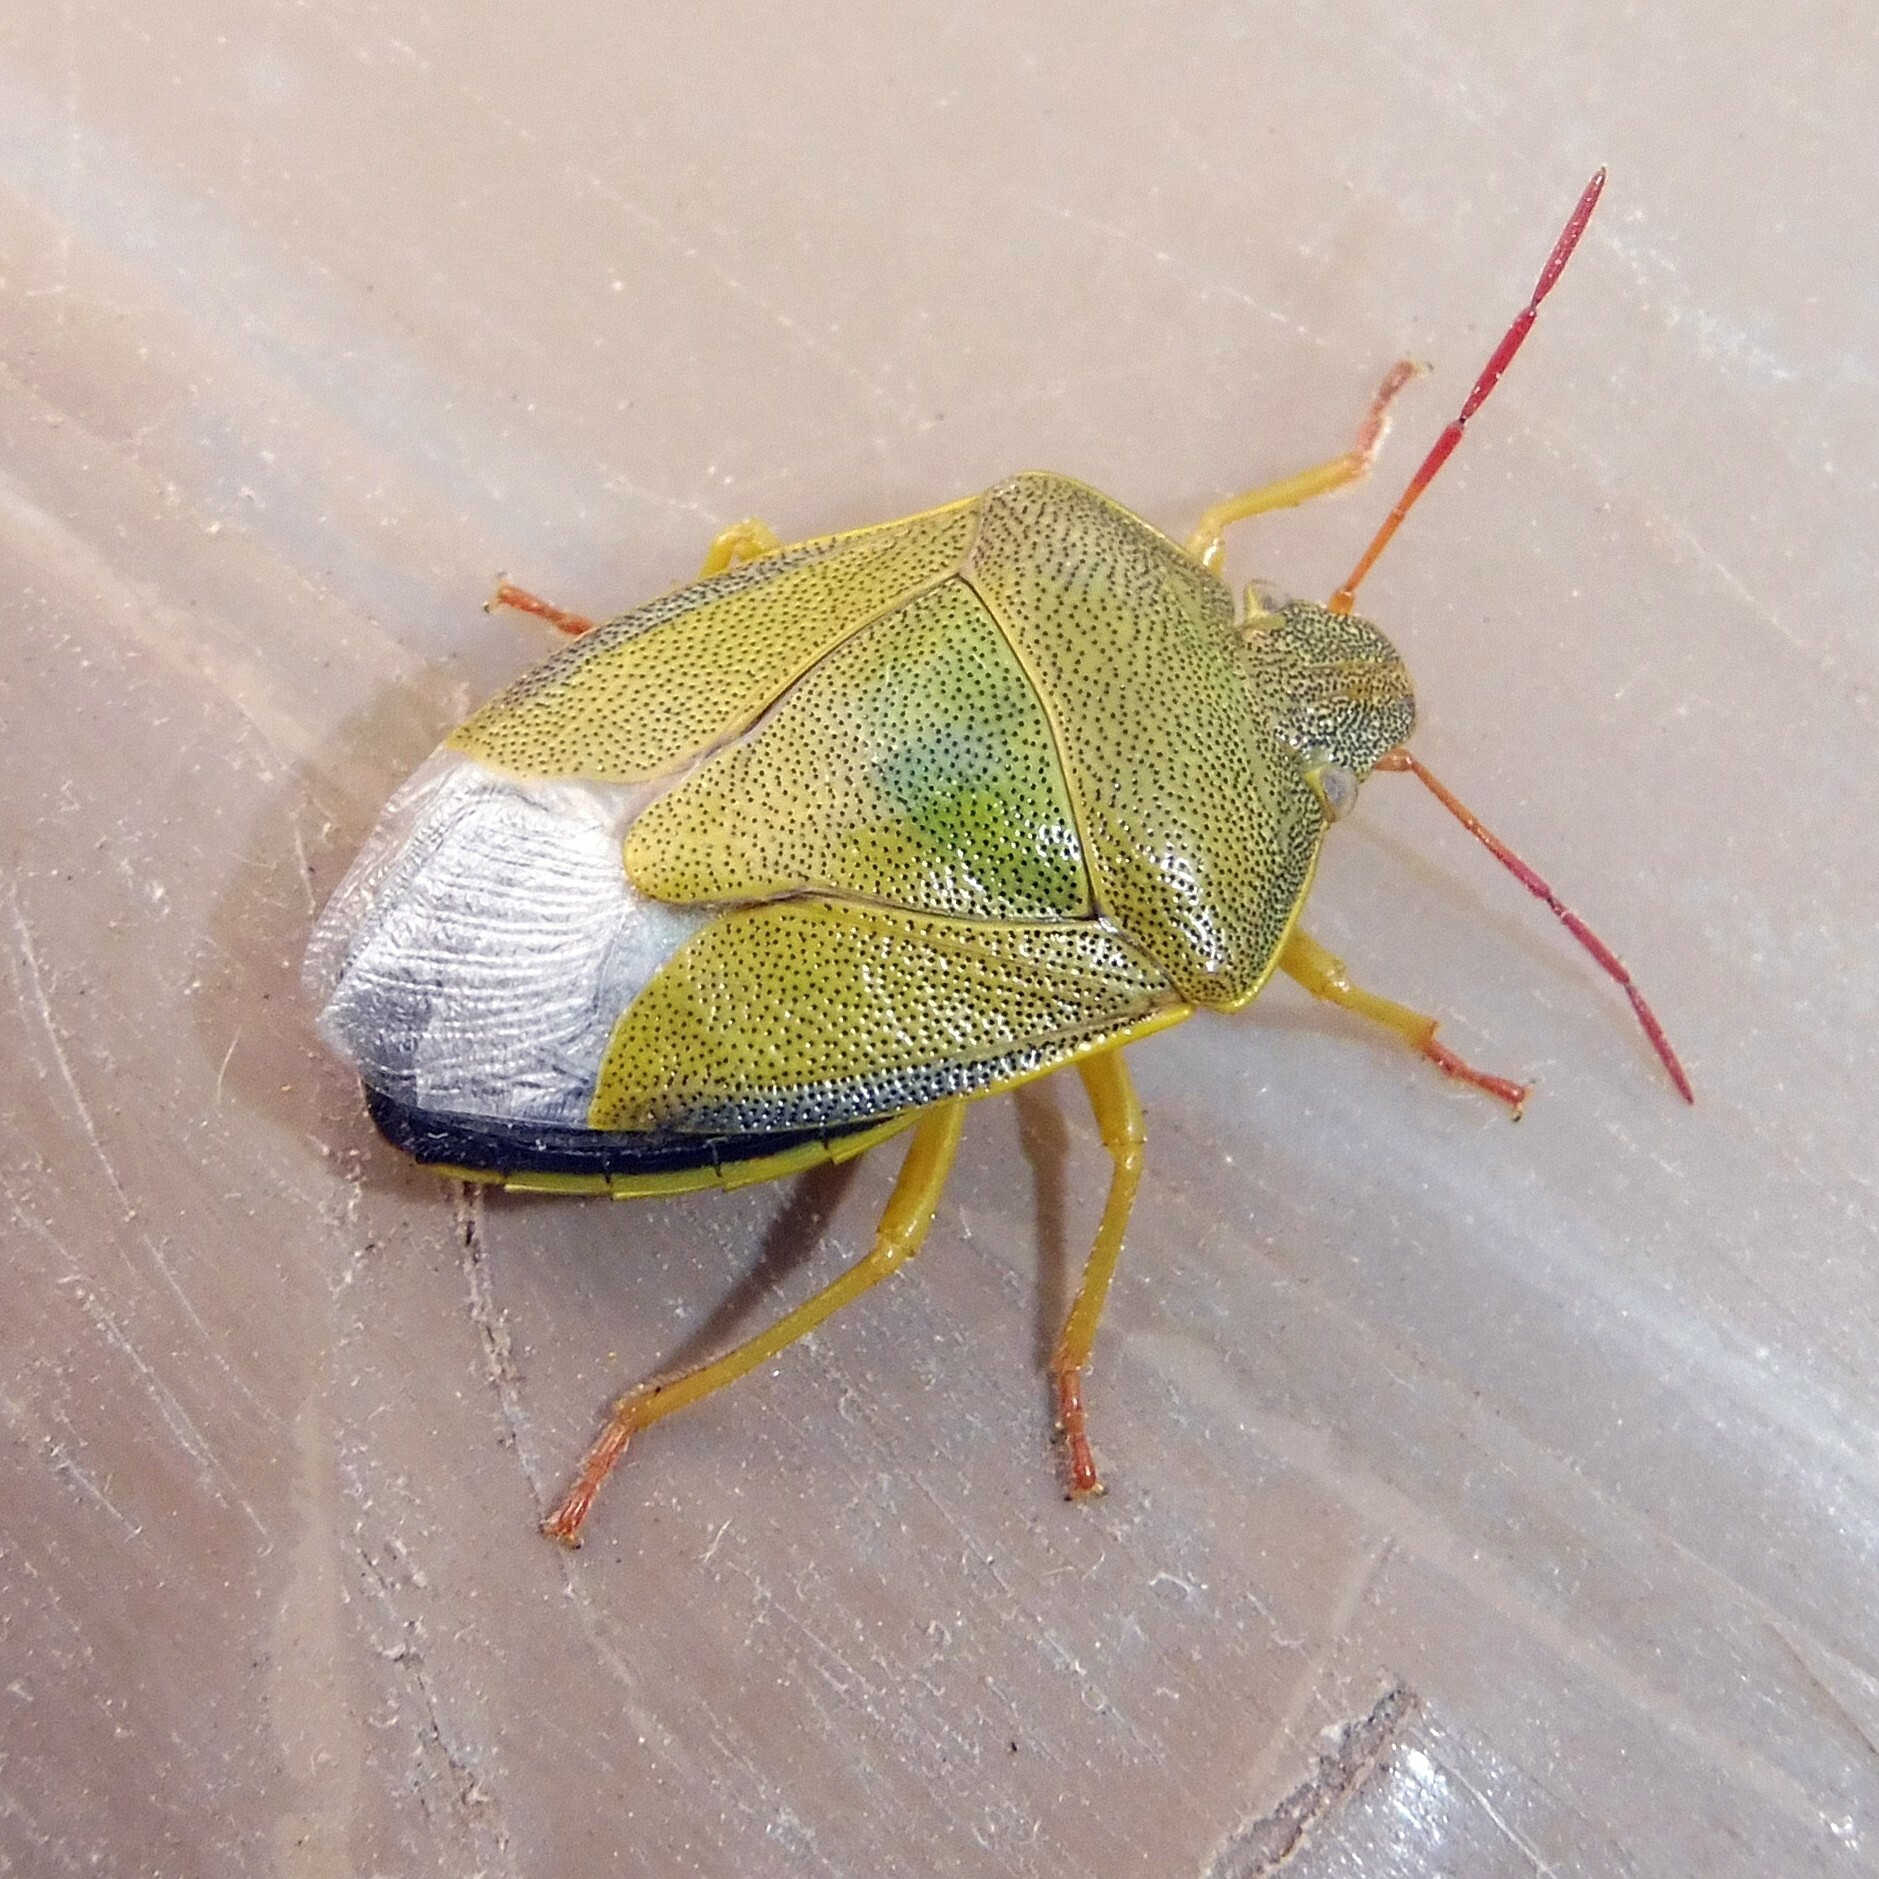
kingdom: Animalia
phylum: Arthropoda
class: Insecta
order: Hemiptera
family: Pentatomidae
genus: Piezodorus
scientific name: Piezodorus lituratus
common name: Stink bug
